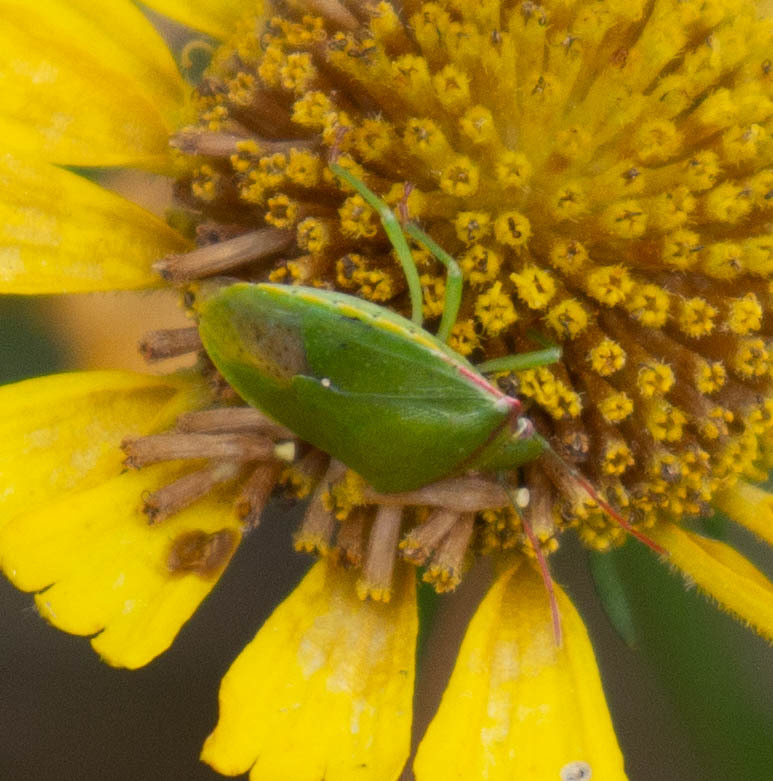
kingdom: Animalia
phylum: Arthropoda
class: Insecta
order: Hemiptera
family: Pentatomidae
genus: Thyanta
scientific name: Thyanta accerra
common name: Stink bug
